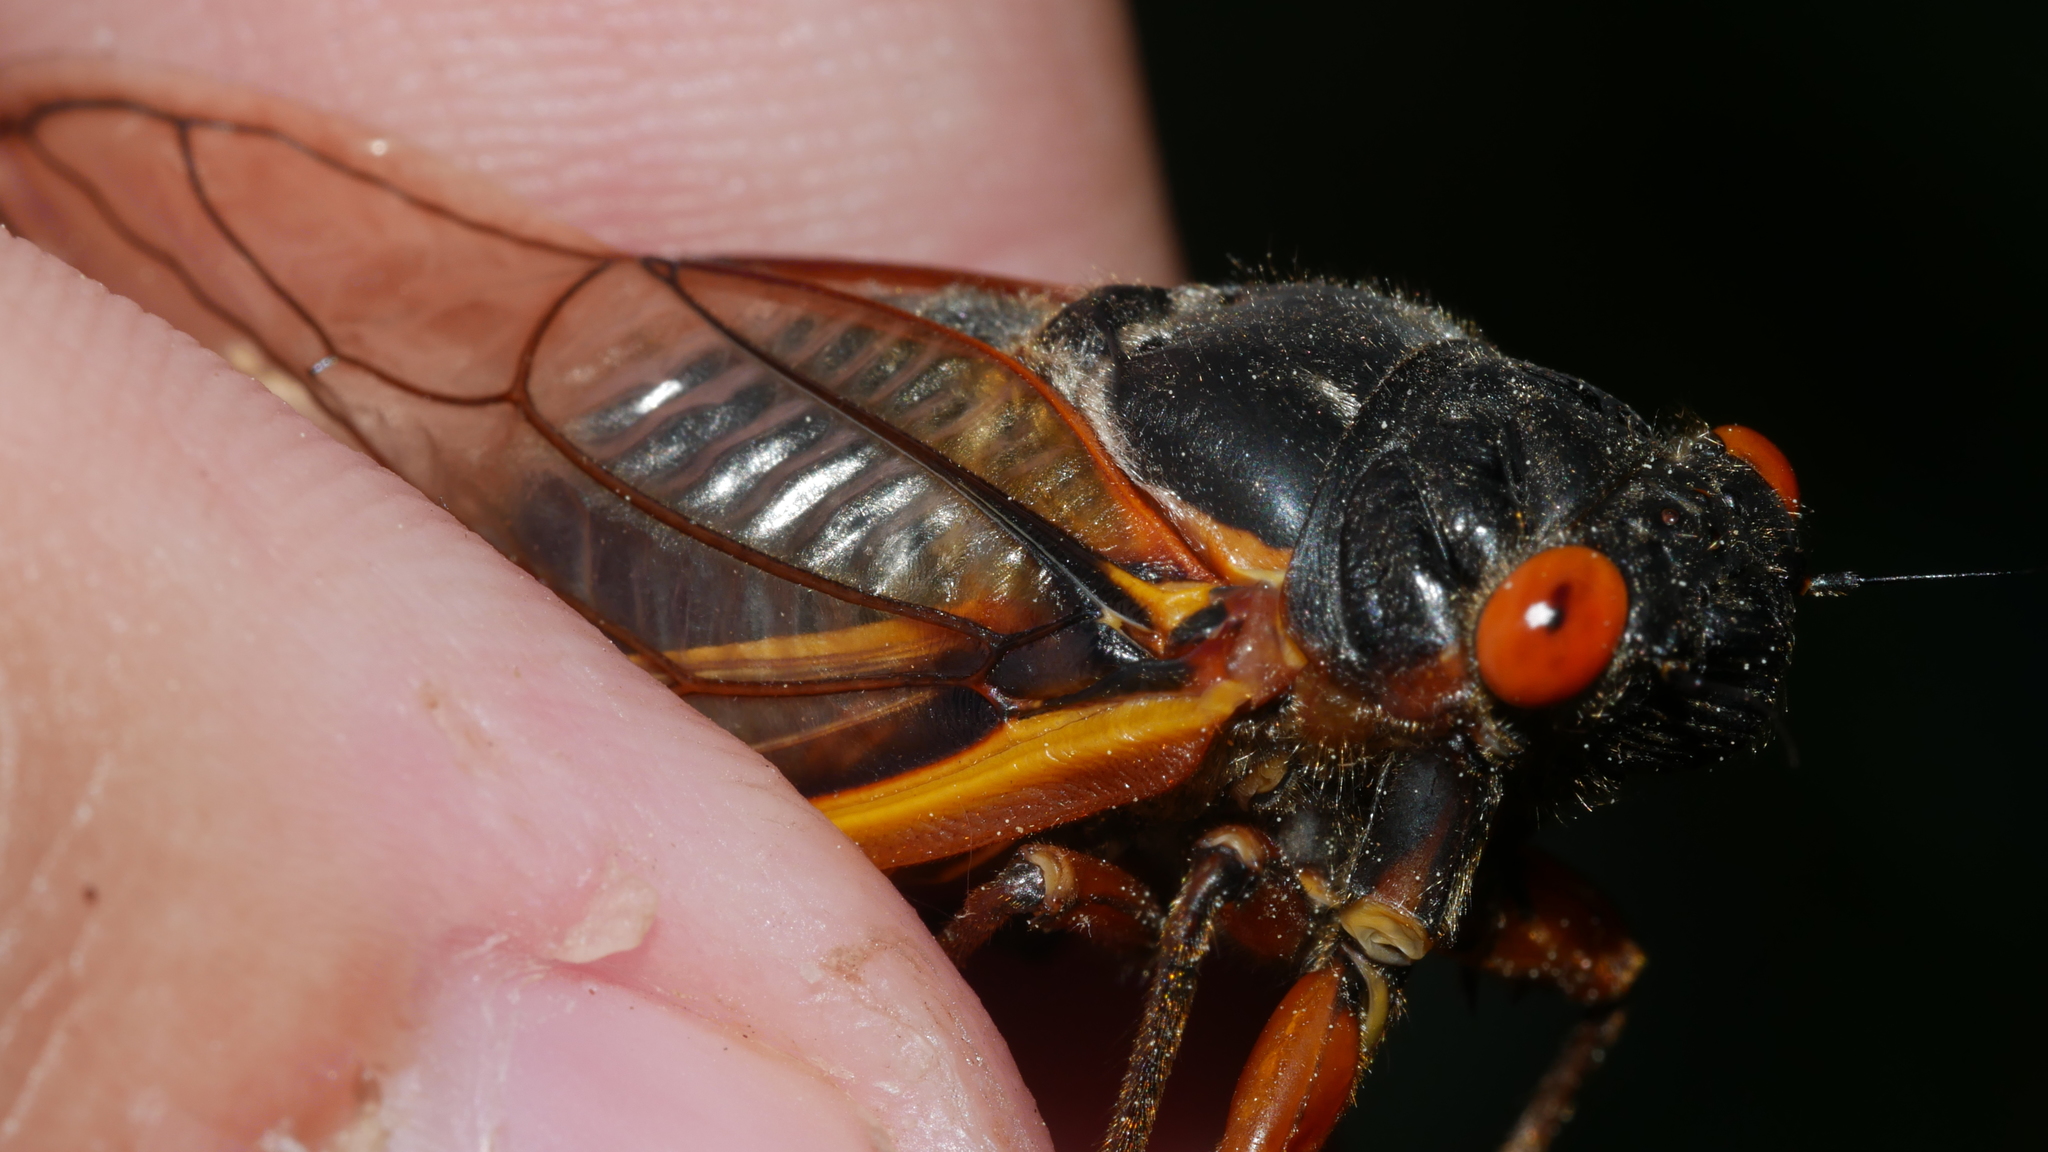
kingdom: Animalia
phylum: Arthropoda
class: Insecta
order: Hemiptera
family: Cicadidae
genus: Magicicada
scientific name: Magicicada septendecim
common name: Periodical cicada
